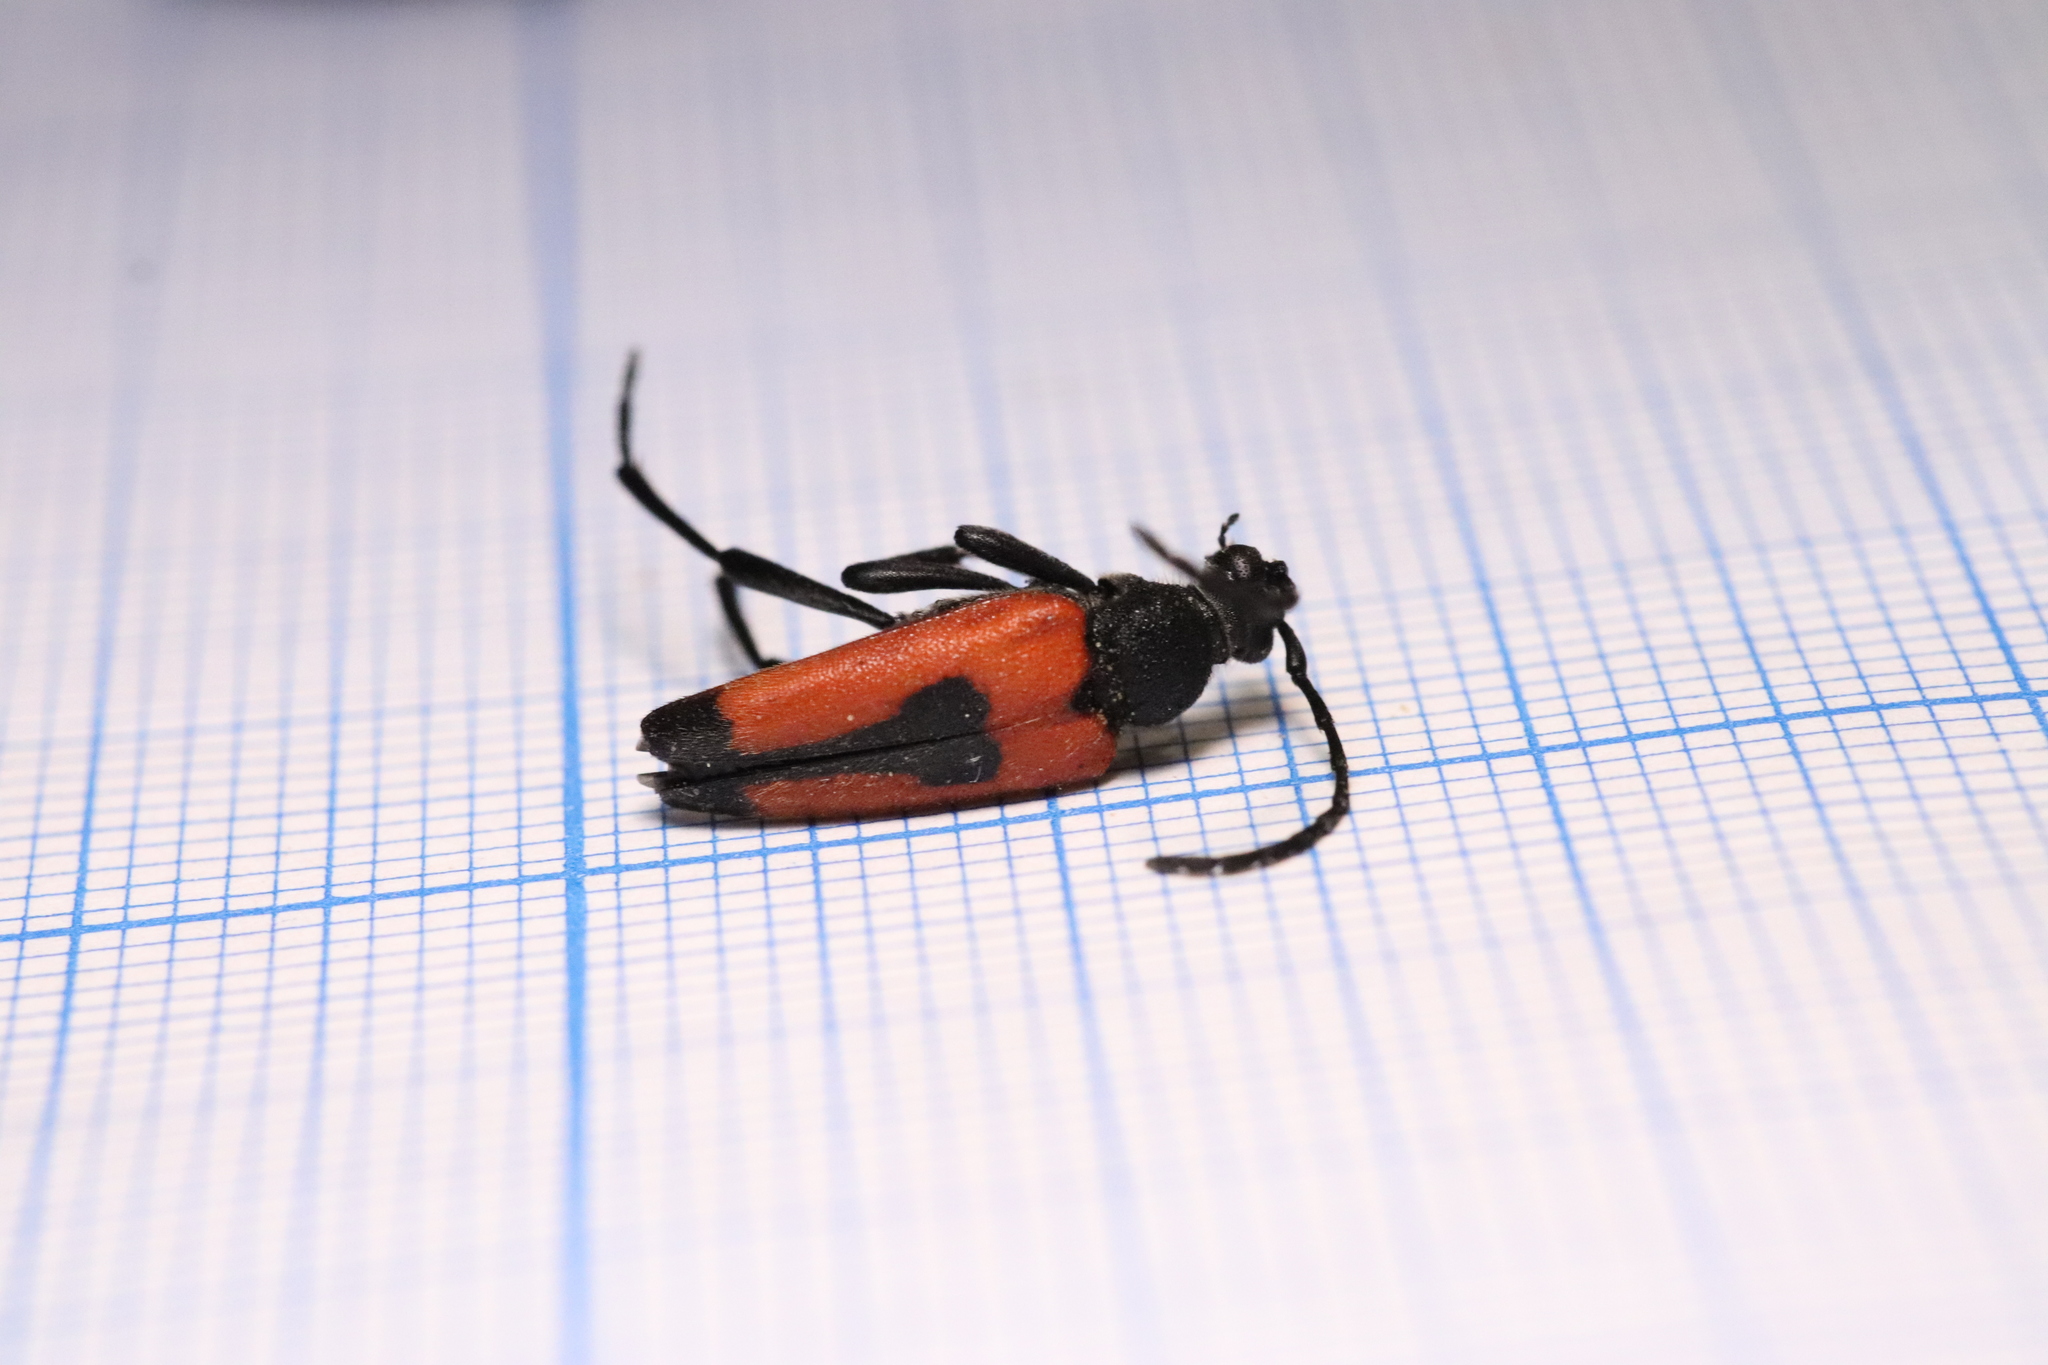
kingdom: Animalia
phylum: Arthropoda
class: Insecta
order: Coleoptera
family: Cerambycidae
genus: Stictoleptura
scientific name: Stictoleptura cordigera
